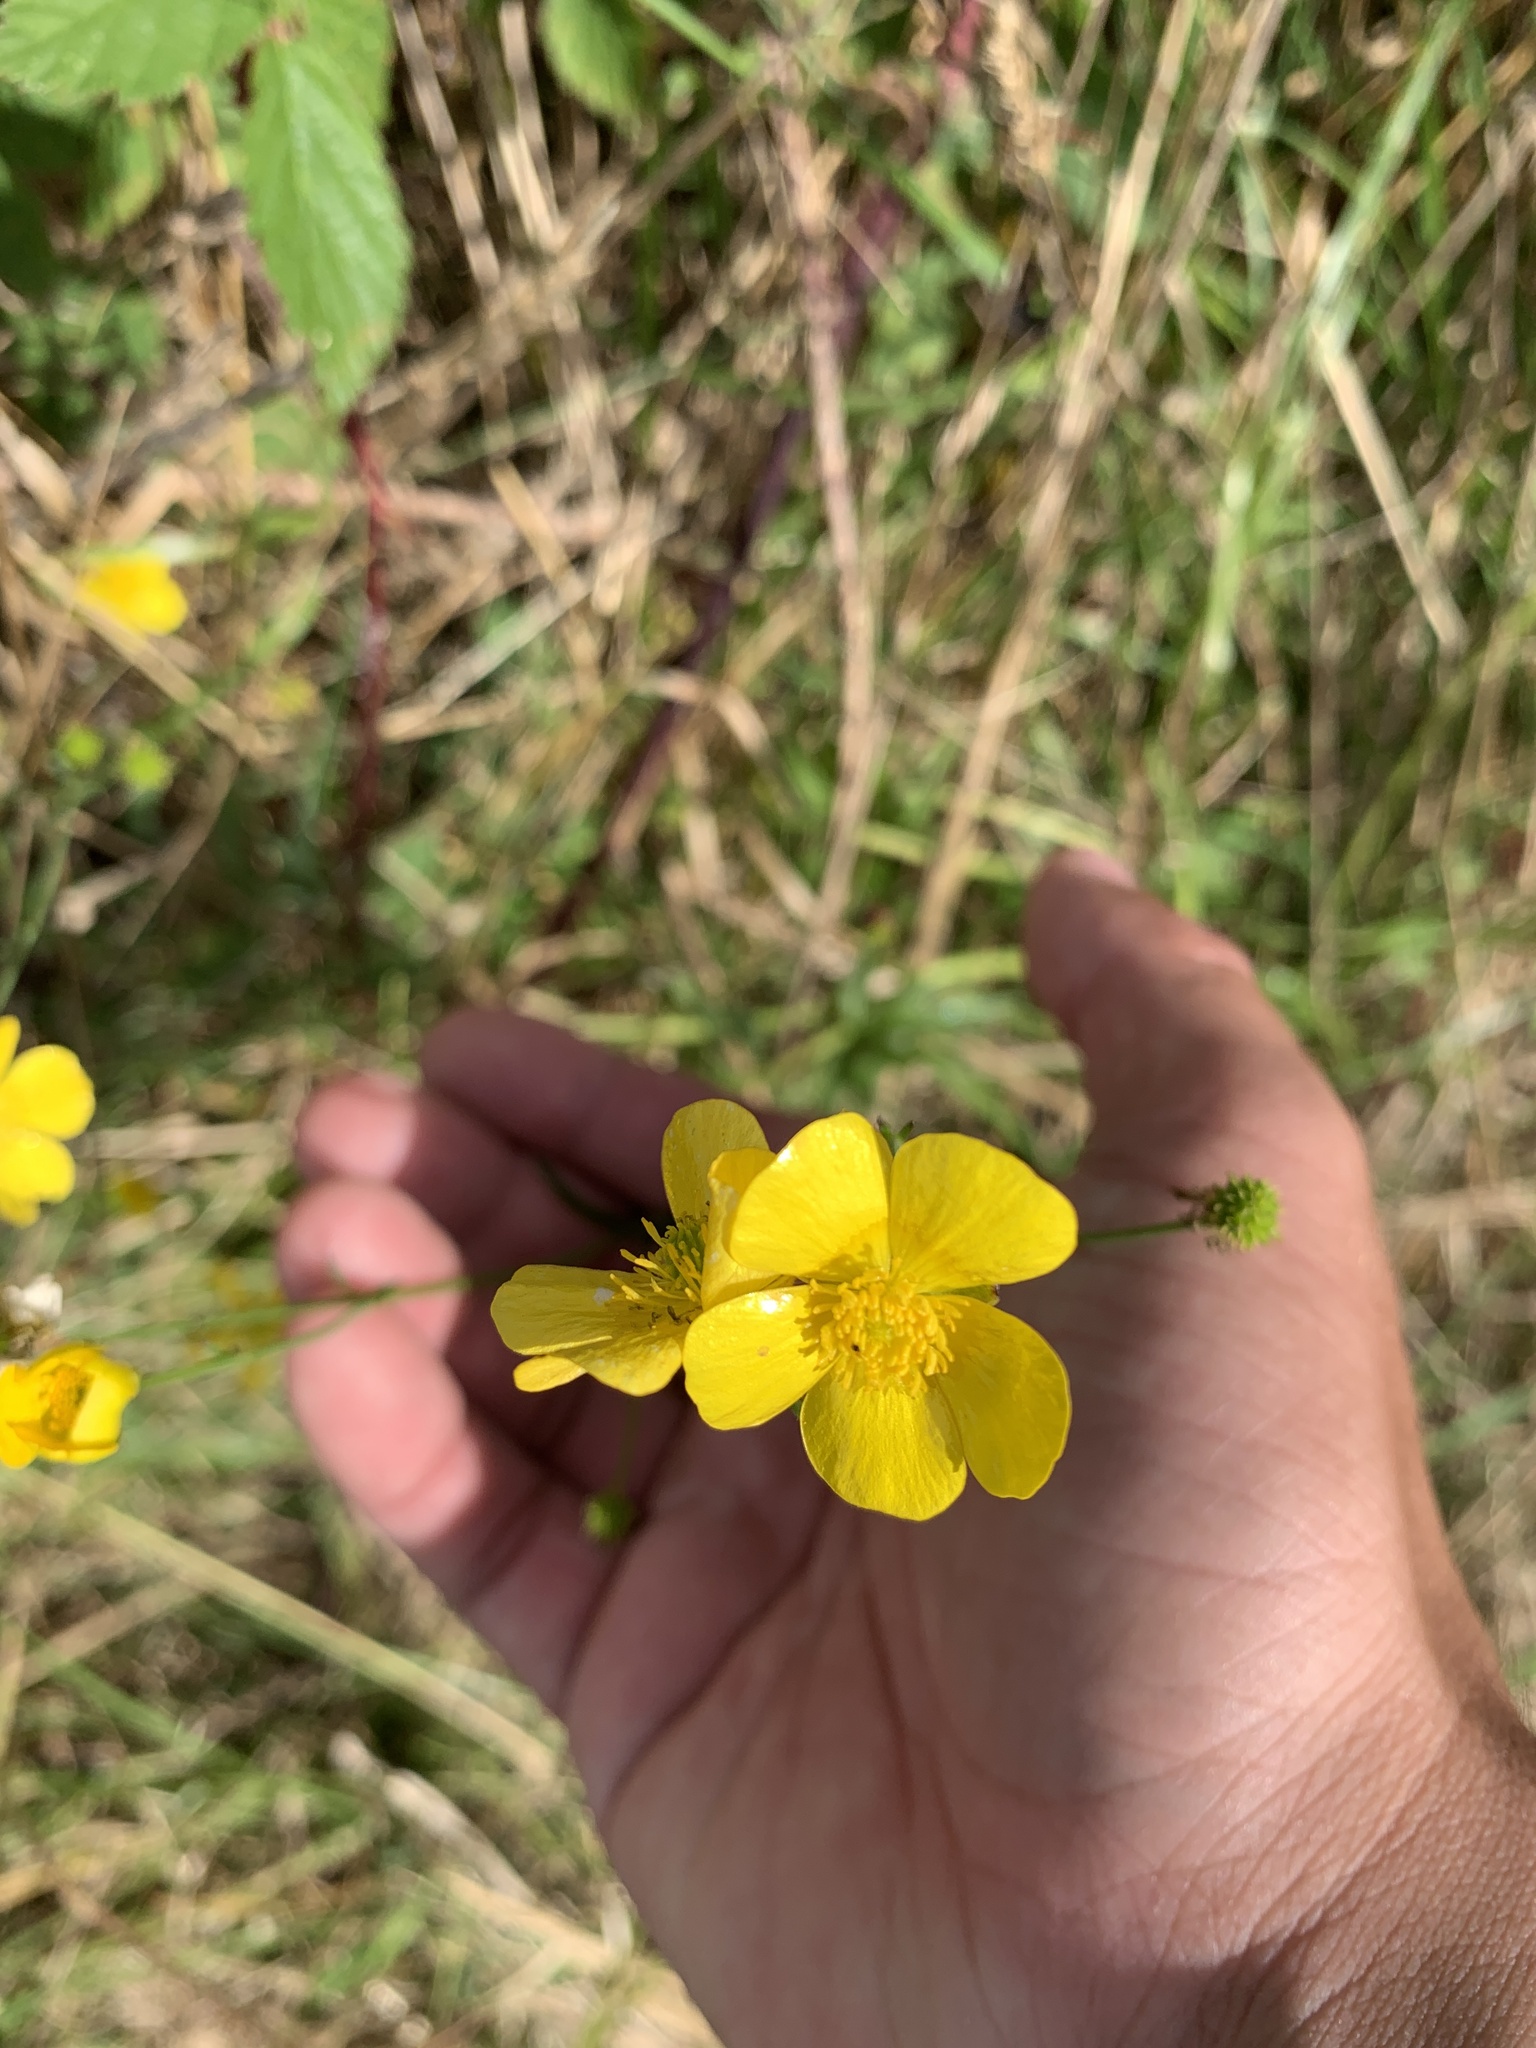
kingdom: Plantae
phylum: Tracheophyta
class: Magnoliopsida
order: Ranunculales
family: Ranunculaceae
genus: Ranunculus
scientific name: Ranunculus acris
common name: Meadow buttercup
